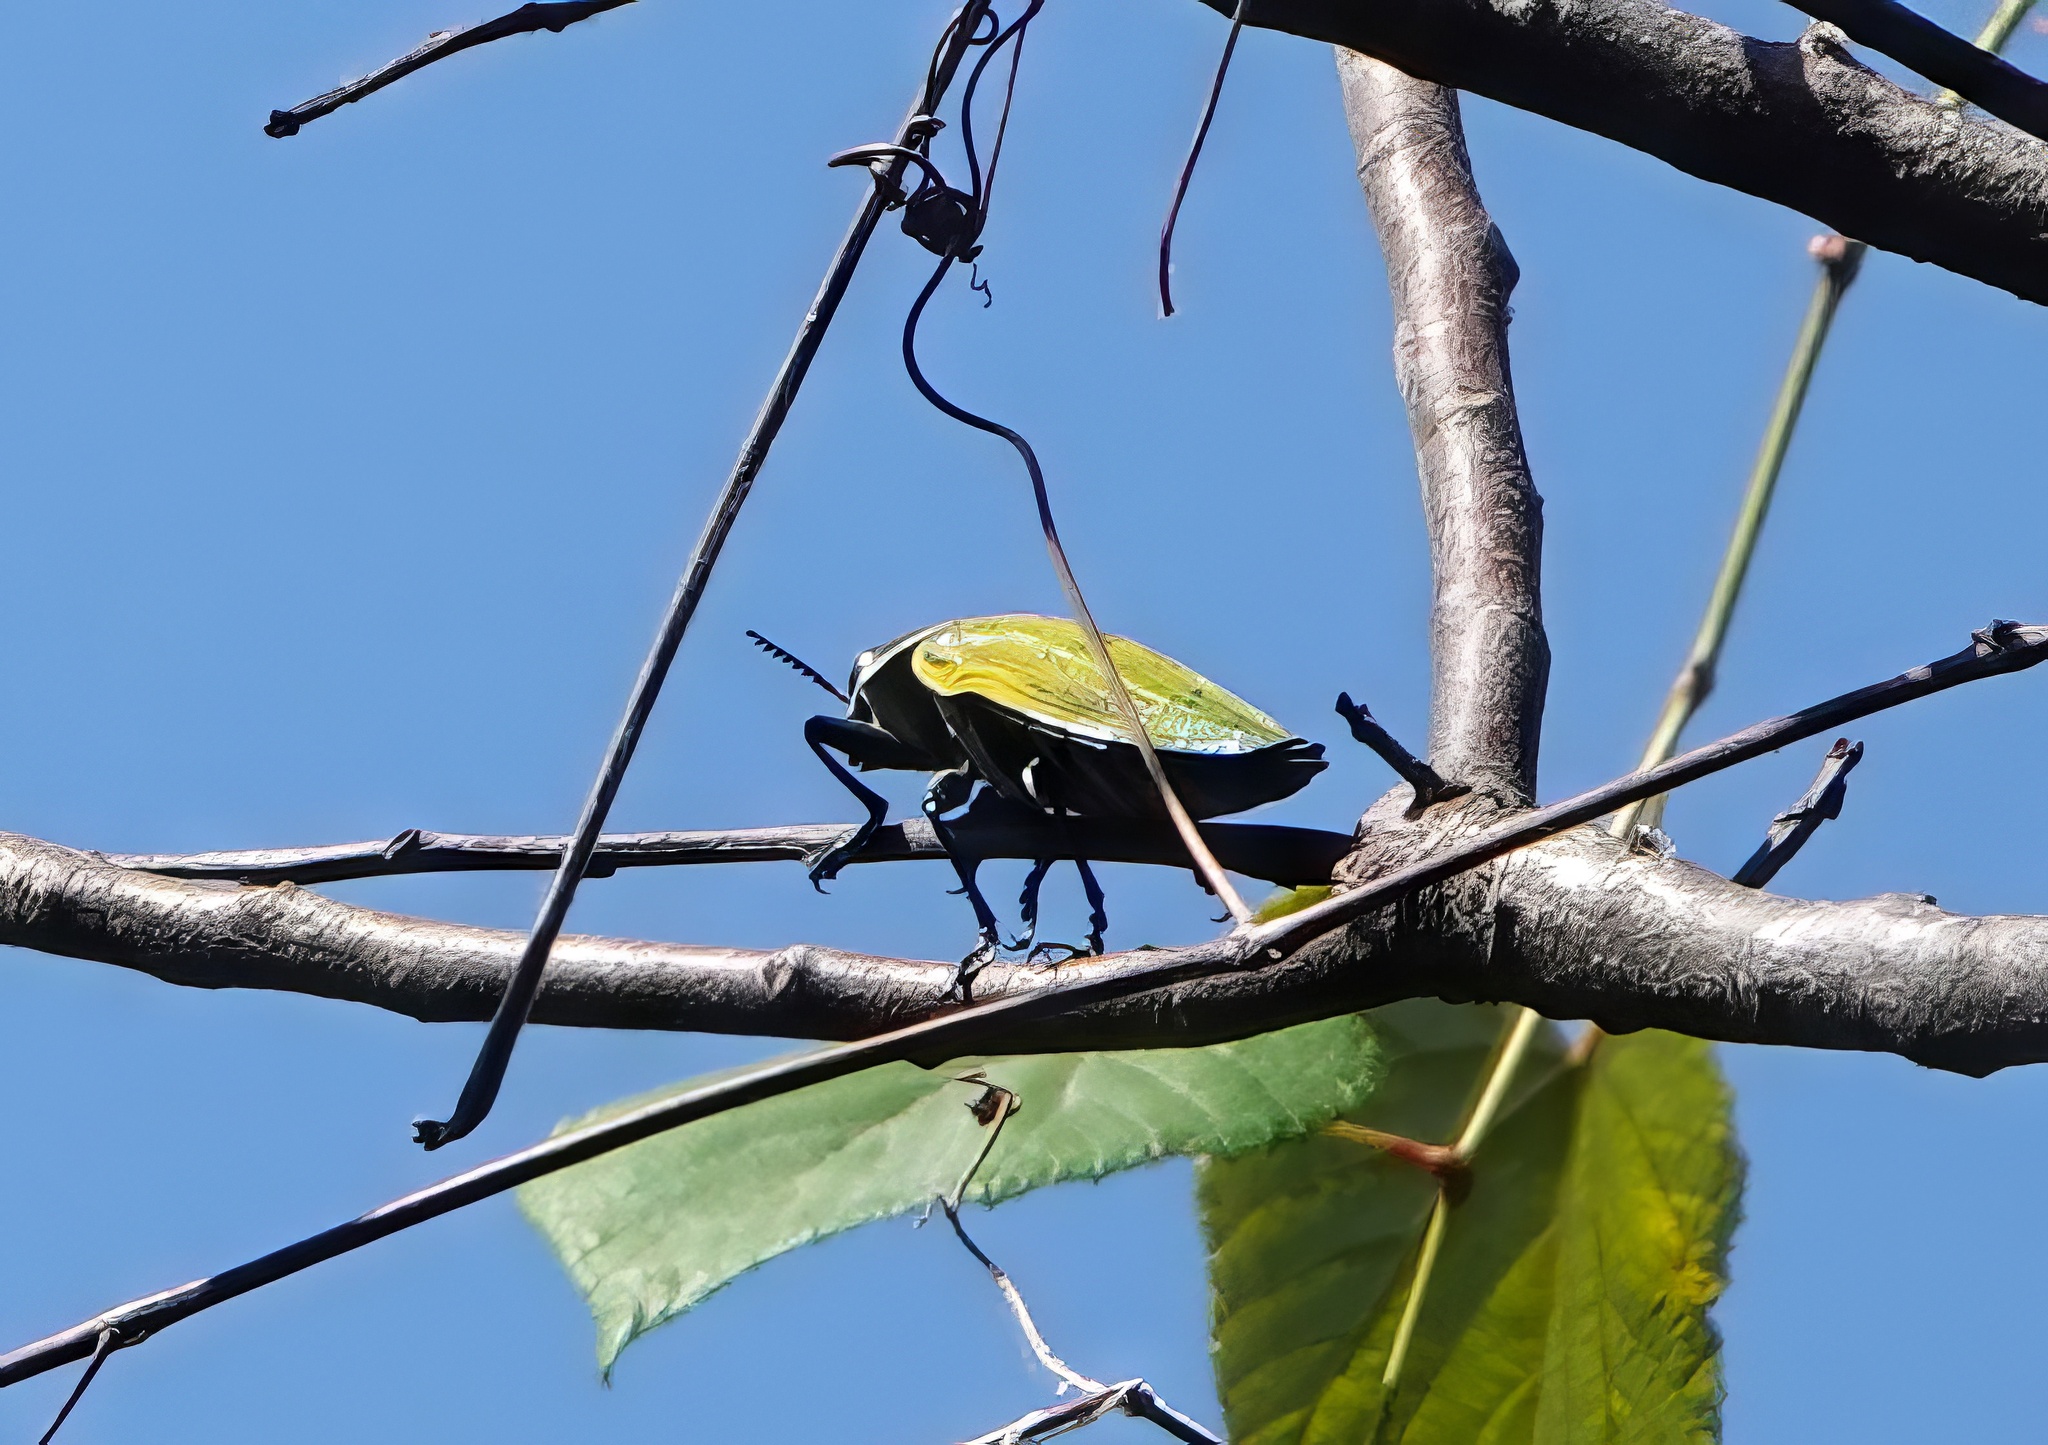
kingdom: Animalia
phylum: Arthropoda
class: Insecta
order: Coleoptera
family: Buprestidae
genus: Euchroma
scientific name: Euchroma giganteum
